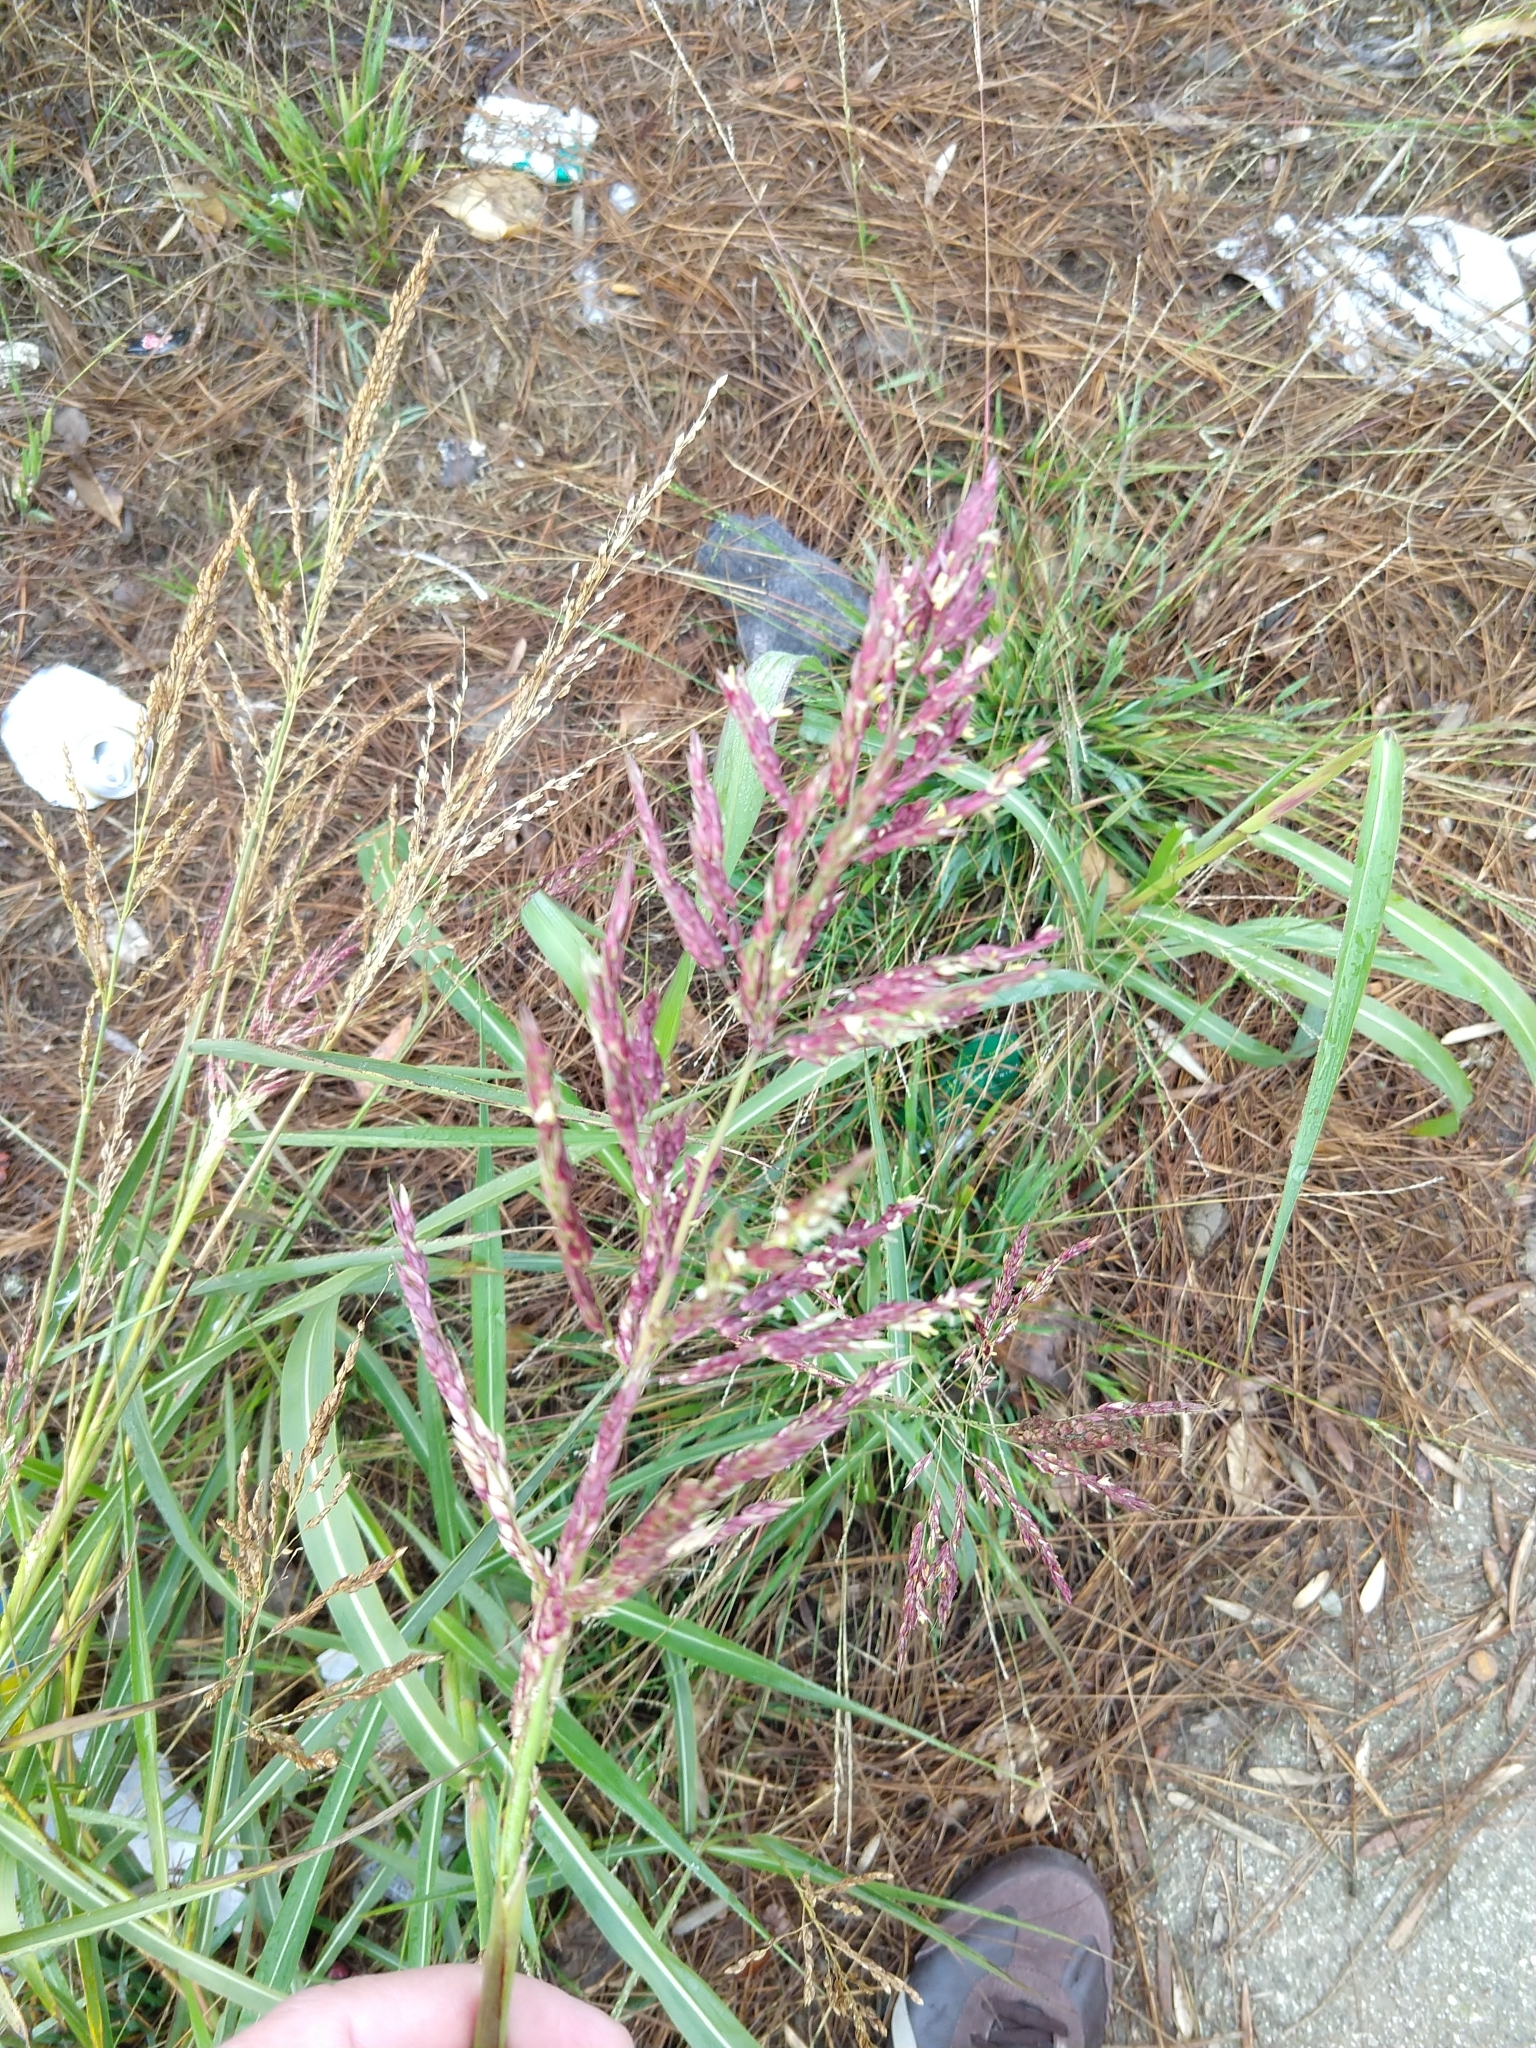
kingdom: Plantae
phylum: Tracheophyta
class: Liliopsida
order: Poales
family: Poaceae
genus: Sorghum
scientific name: Sorghum halepense
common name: Johnson-grass
